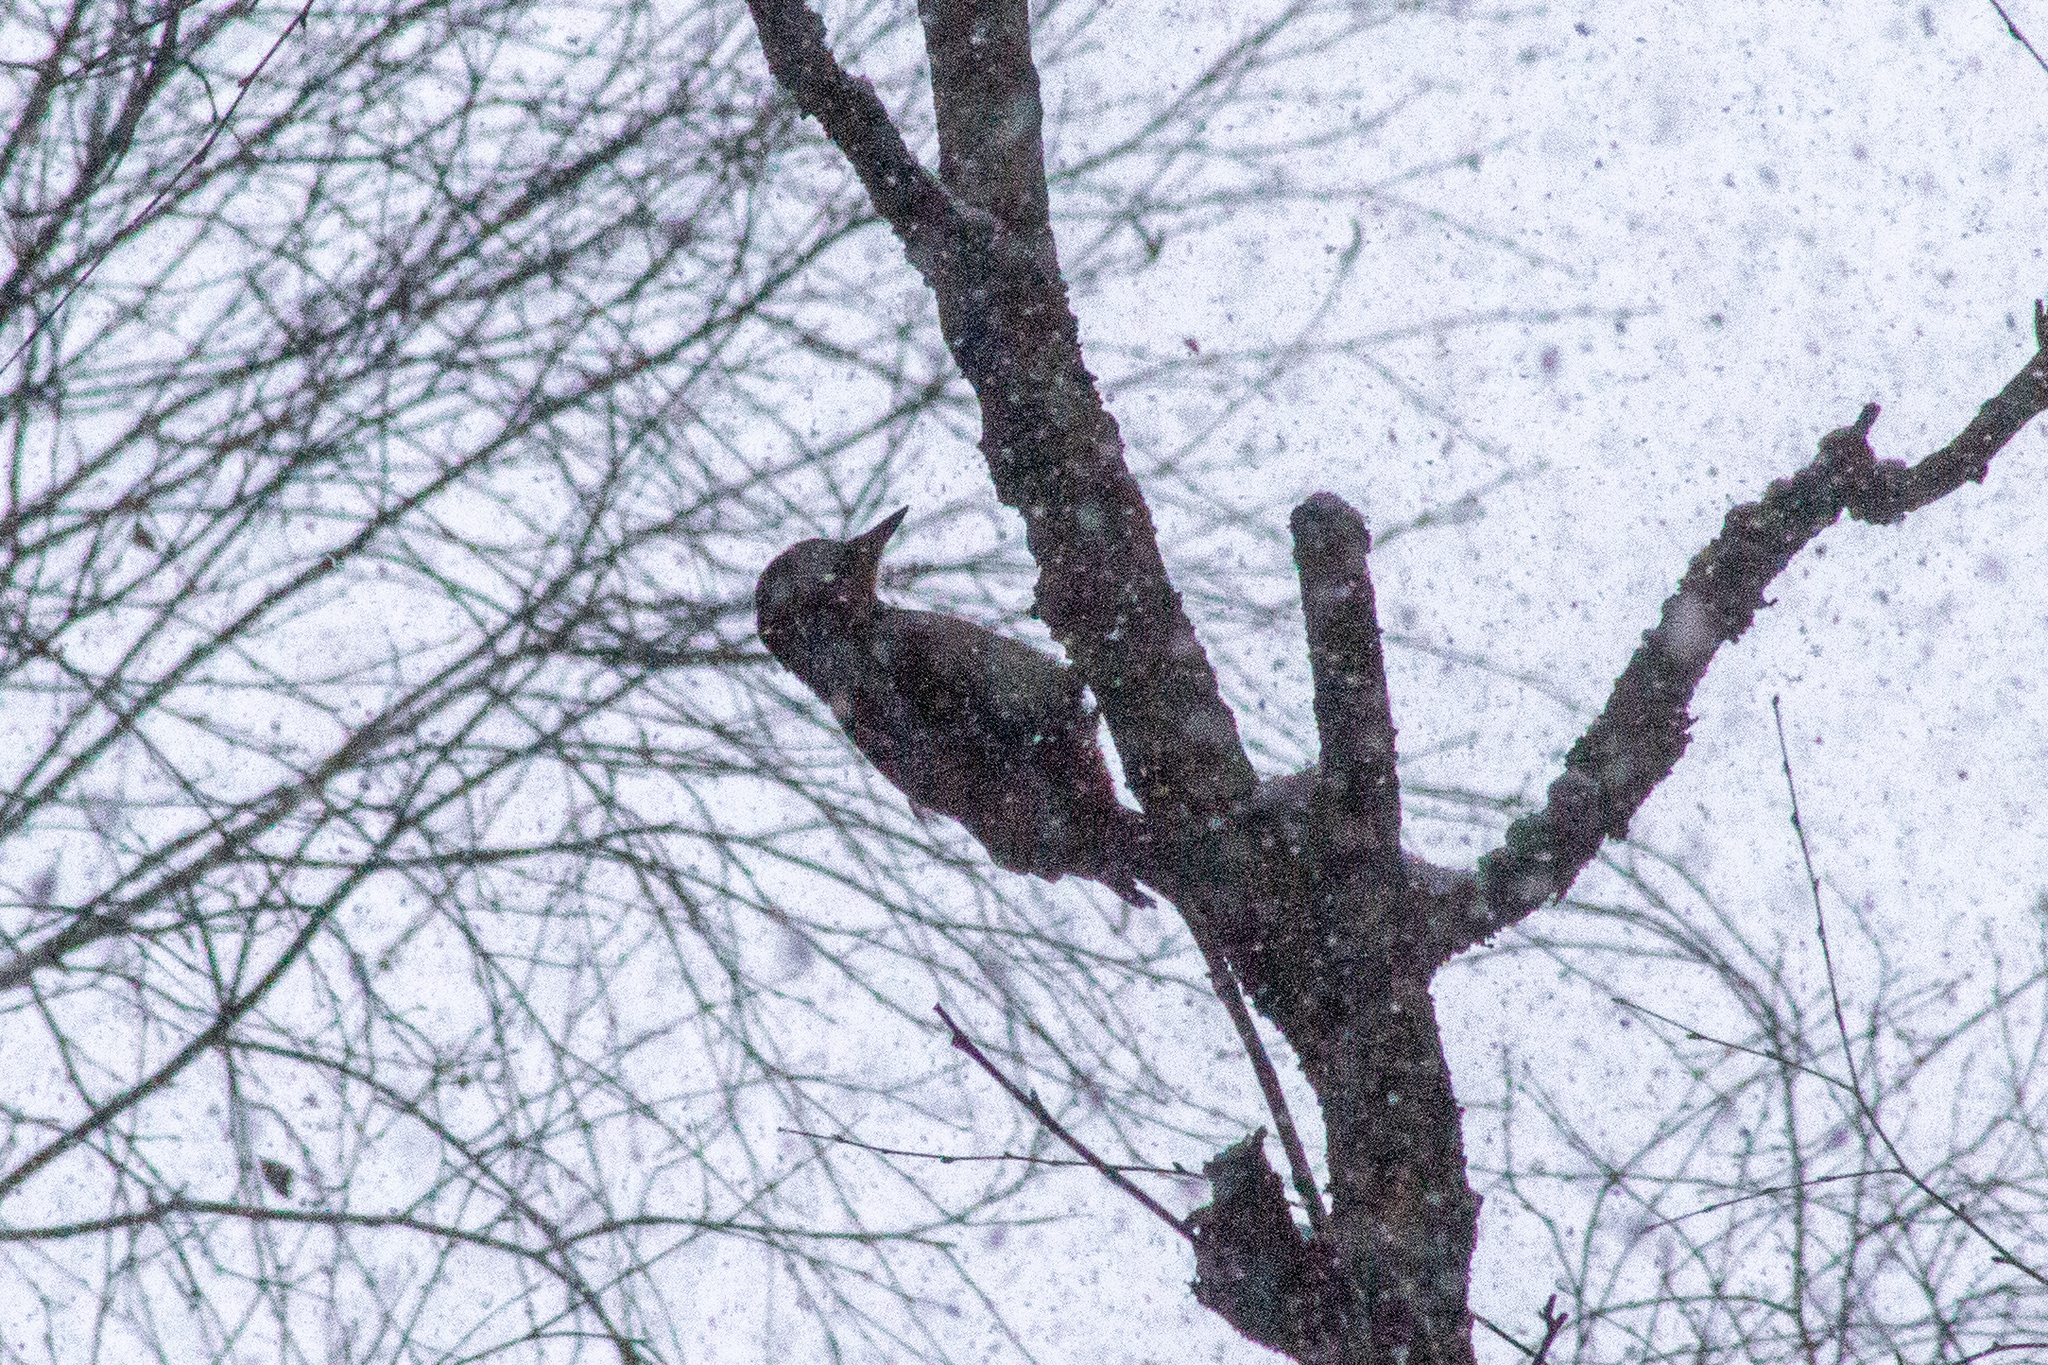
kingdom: Animalia
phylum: Chordata
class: Aves
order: Piciformes
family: Picidae
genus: Dendrocopos
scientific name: Dendrocopos major
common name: Great spotted woodpecker
